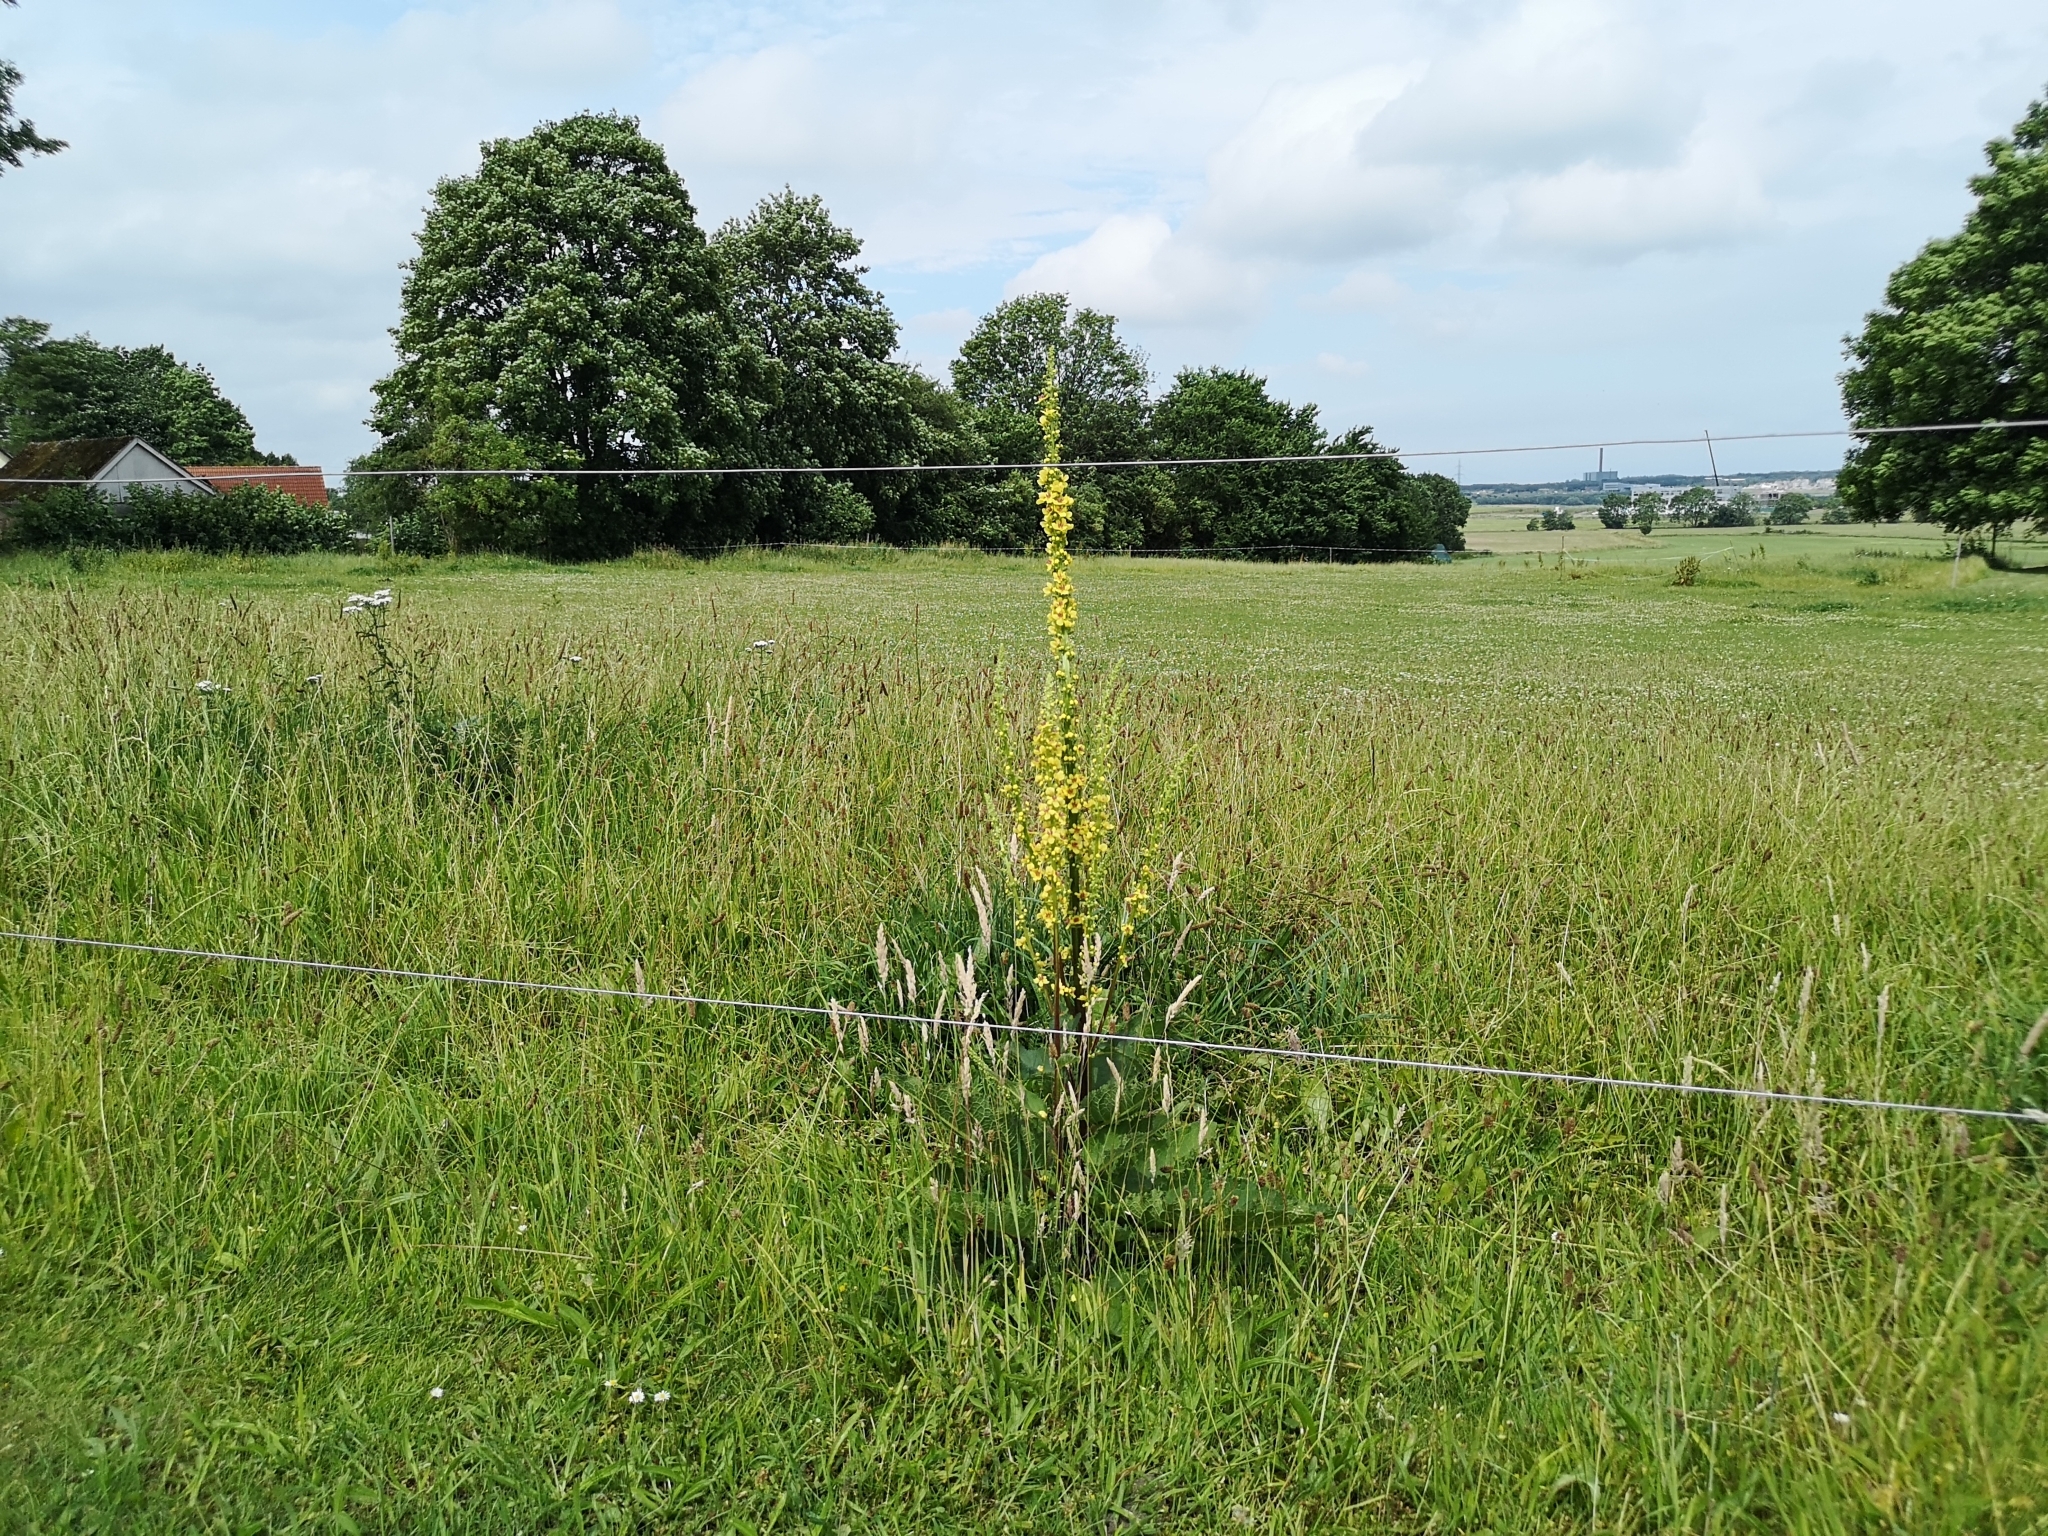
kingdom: Plantae
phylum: Tracheophyta
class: Magnoliopsida
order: Lamiales
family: Scrophulariaceae
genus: Verbascum
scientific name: Verbascum nigrum
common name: Dark mullein
